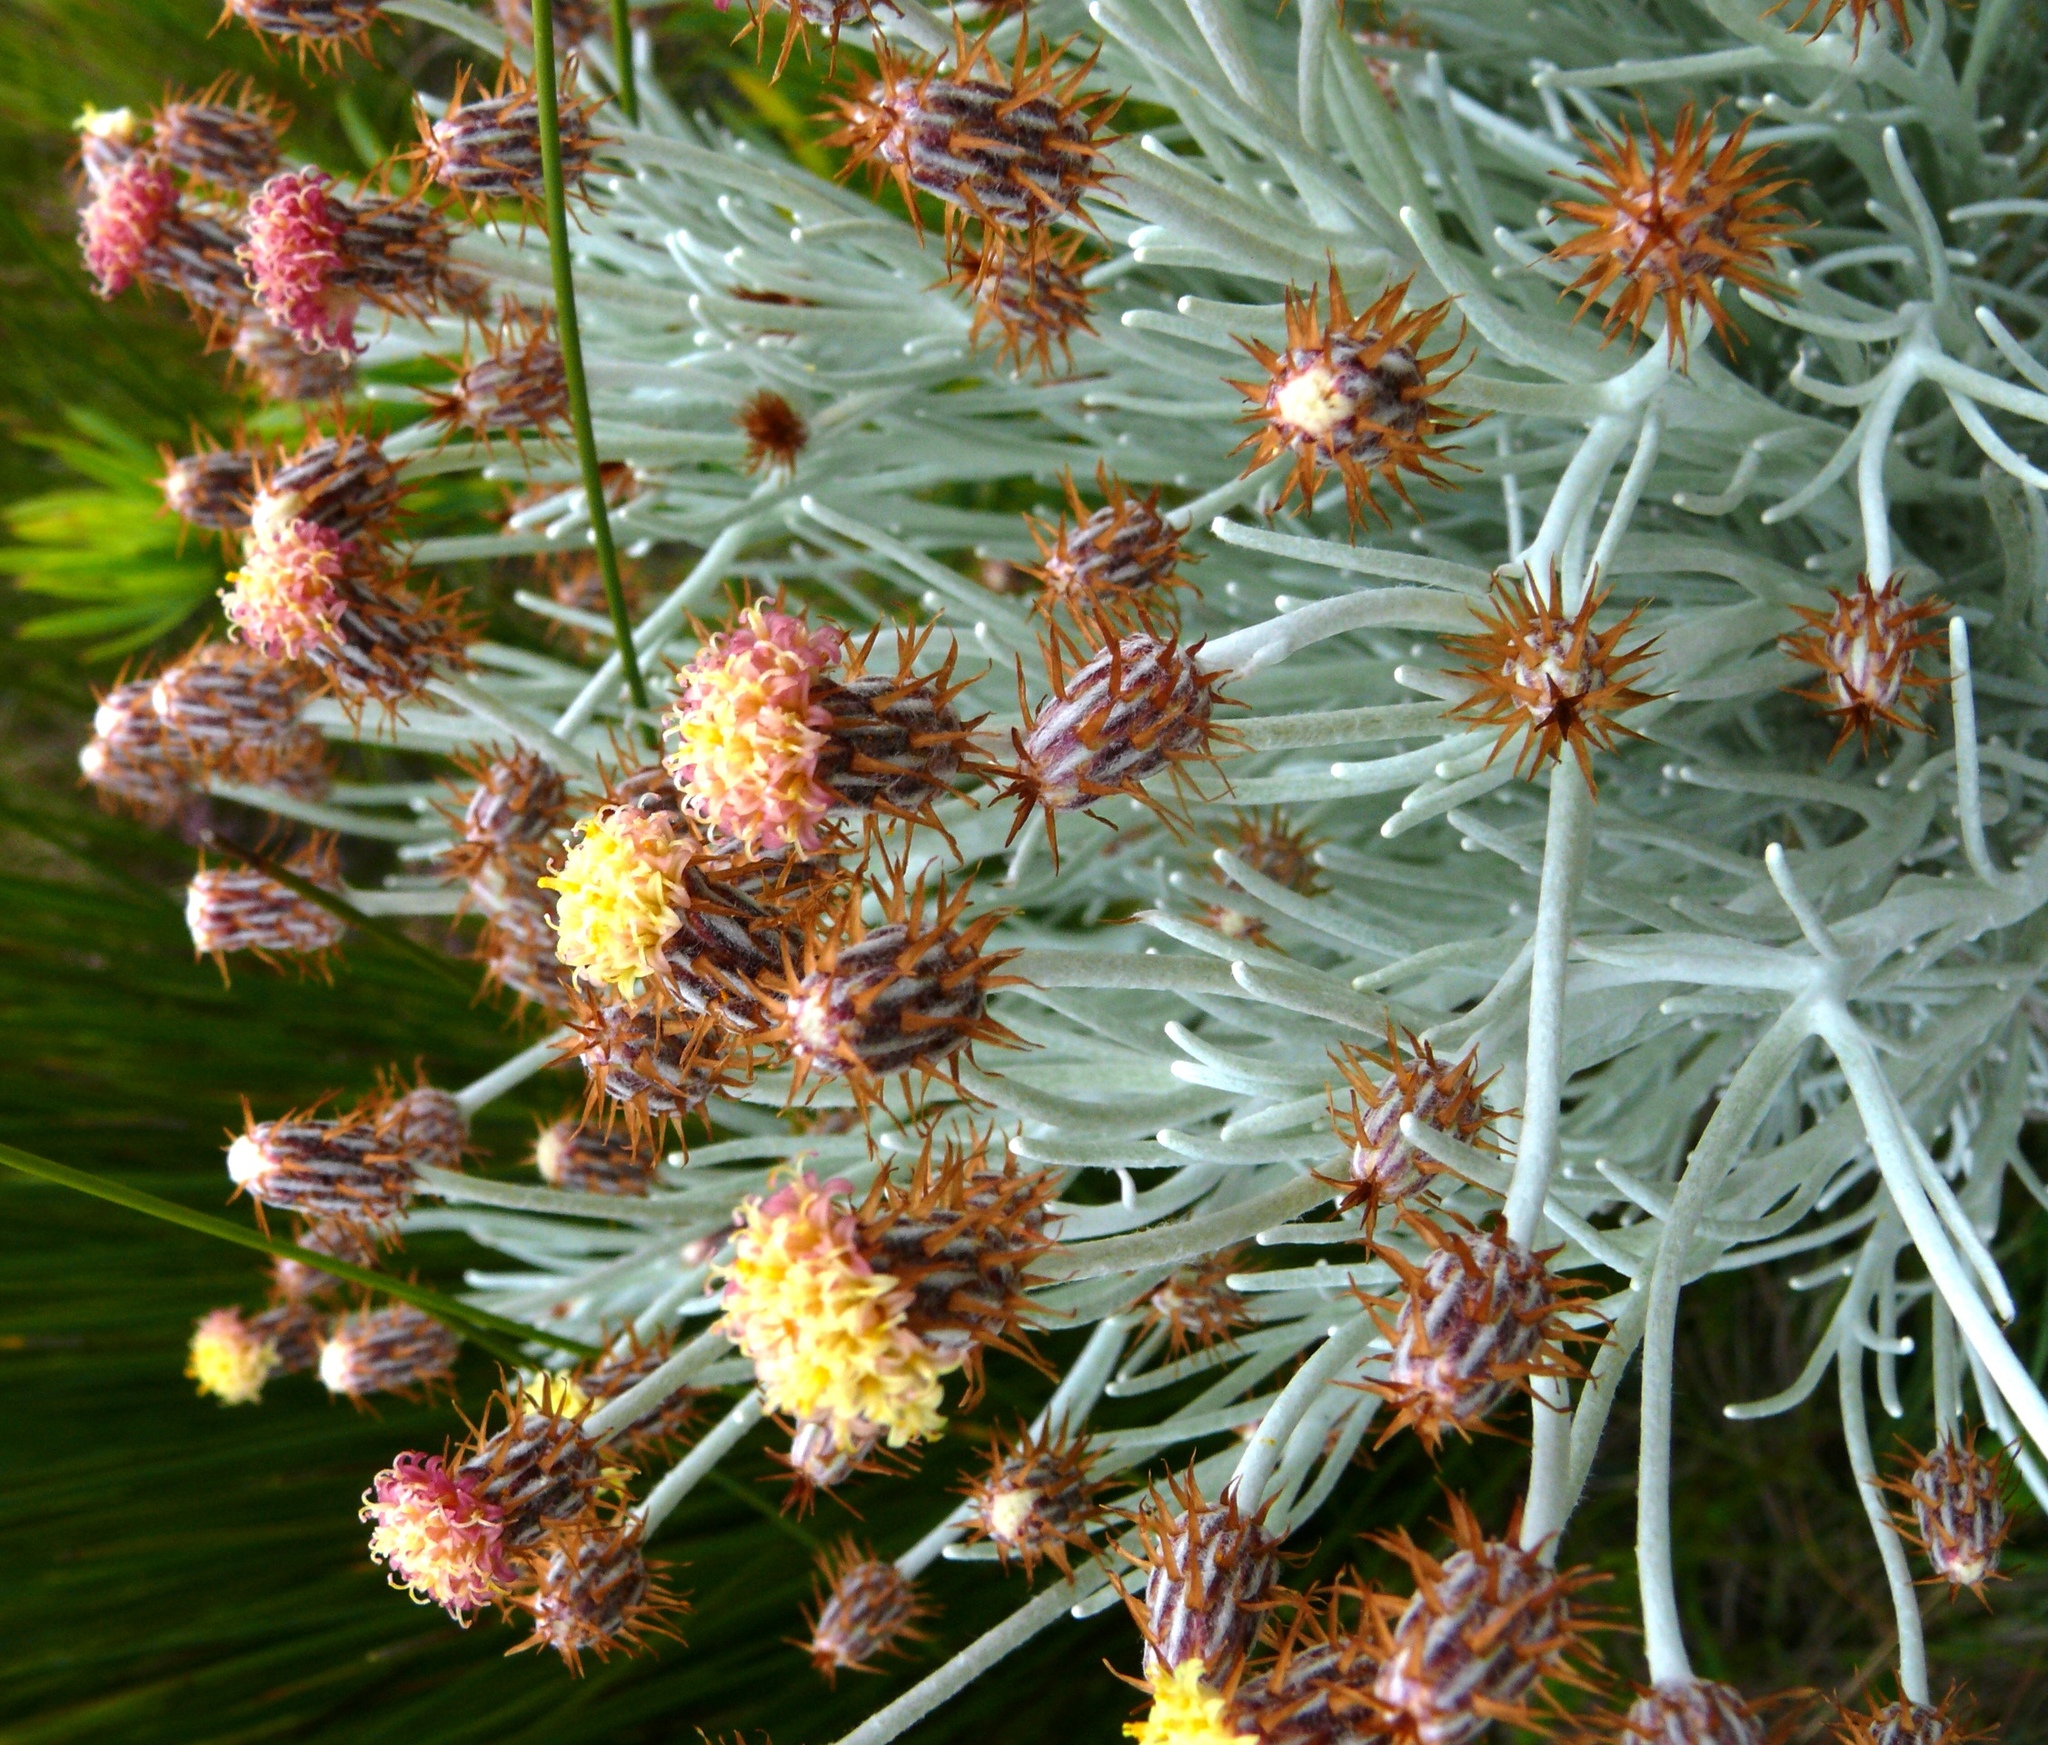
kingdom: Plantae
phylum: Tracheophyta
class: Magnoliopsida
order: Asterales
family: Asteraceae
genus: Syncarpha
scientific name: Syncarpha gnaphaloides
